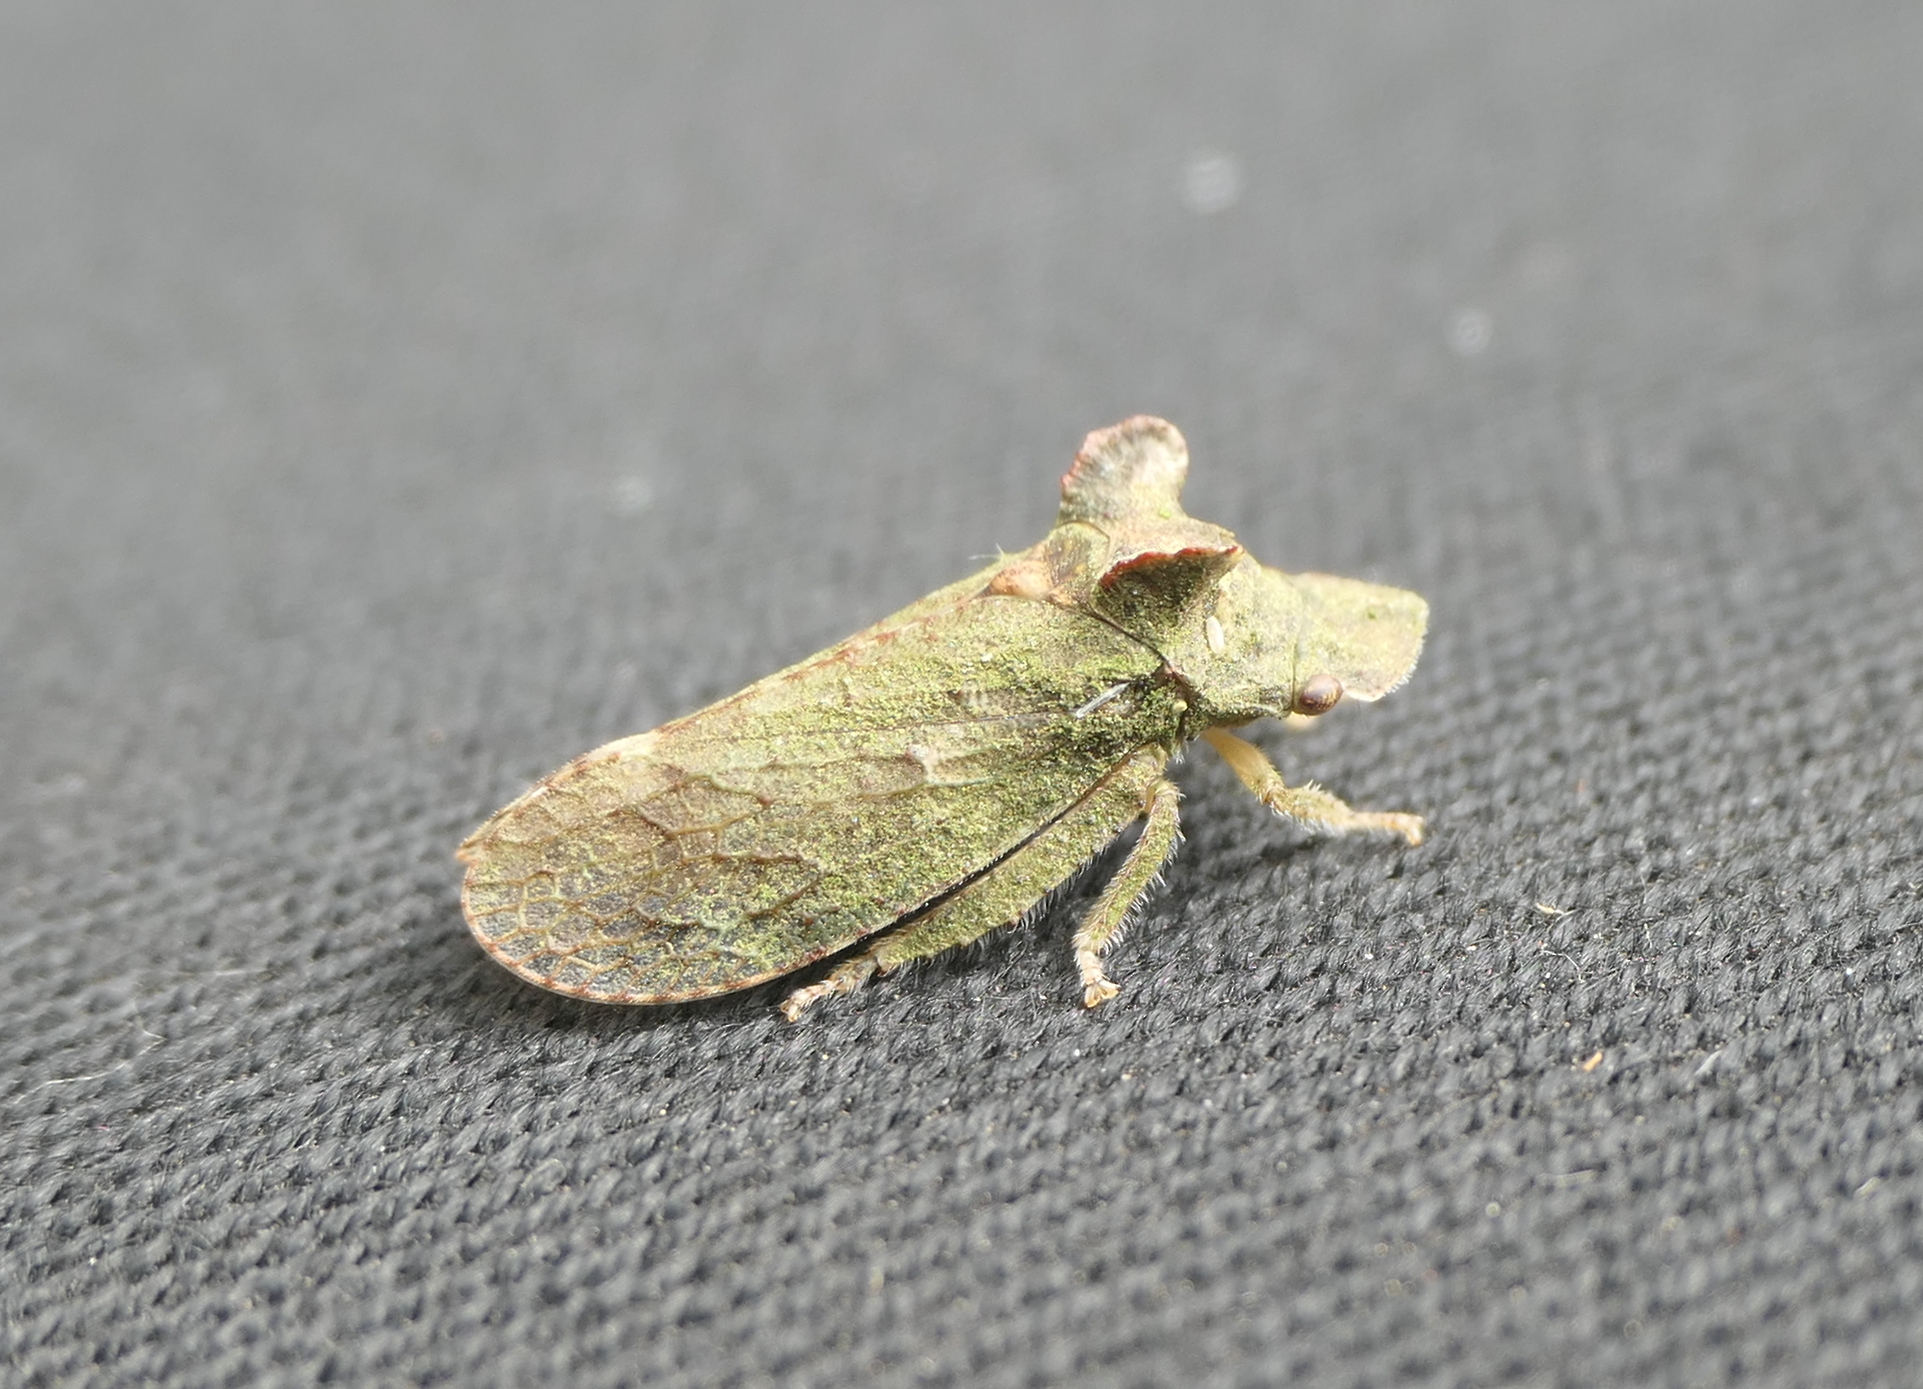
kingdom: Animalia
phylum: Arthropoda
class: Insecta
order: Hemiptera
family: Cicadellidae
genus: Ledra
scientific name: Ledra aurita
